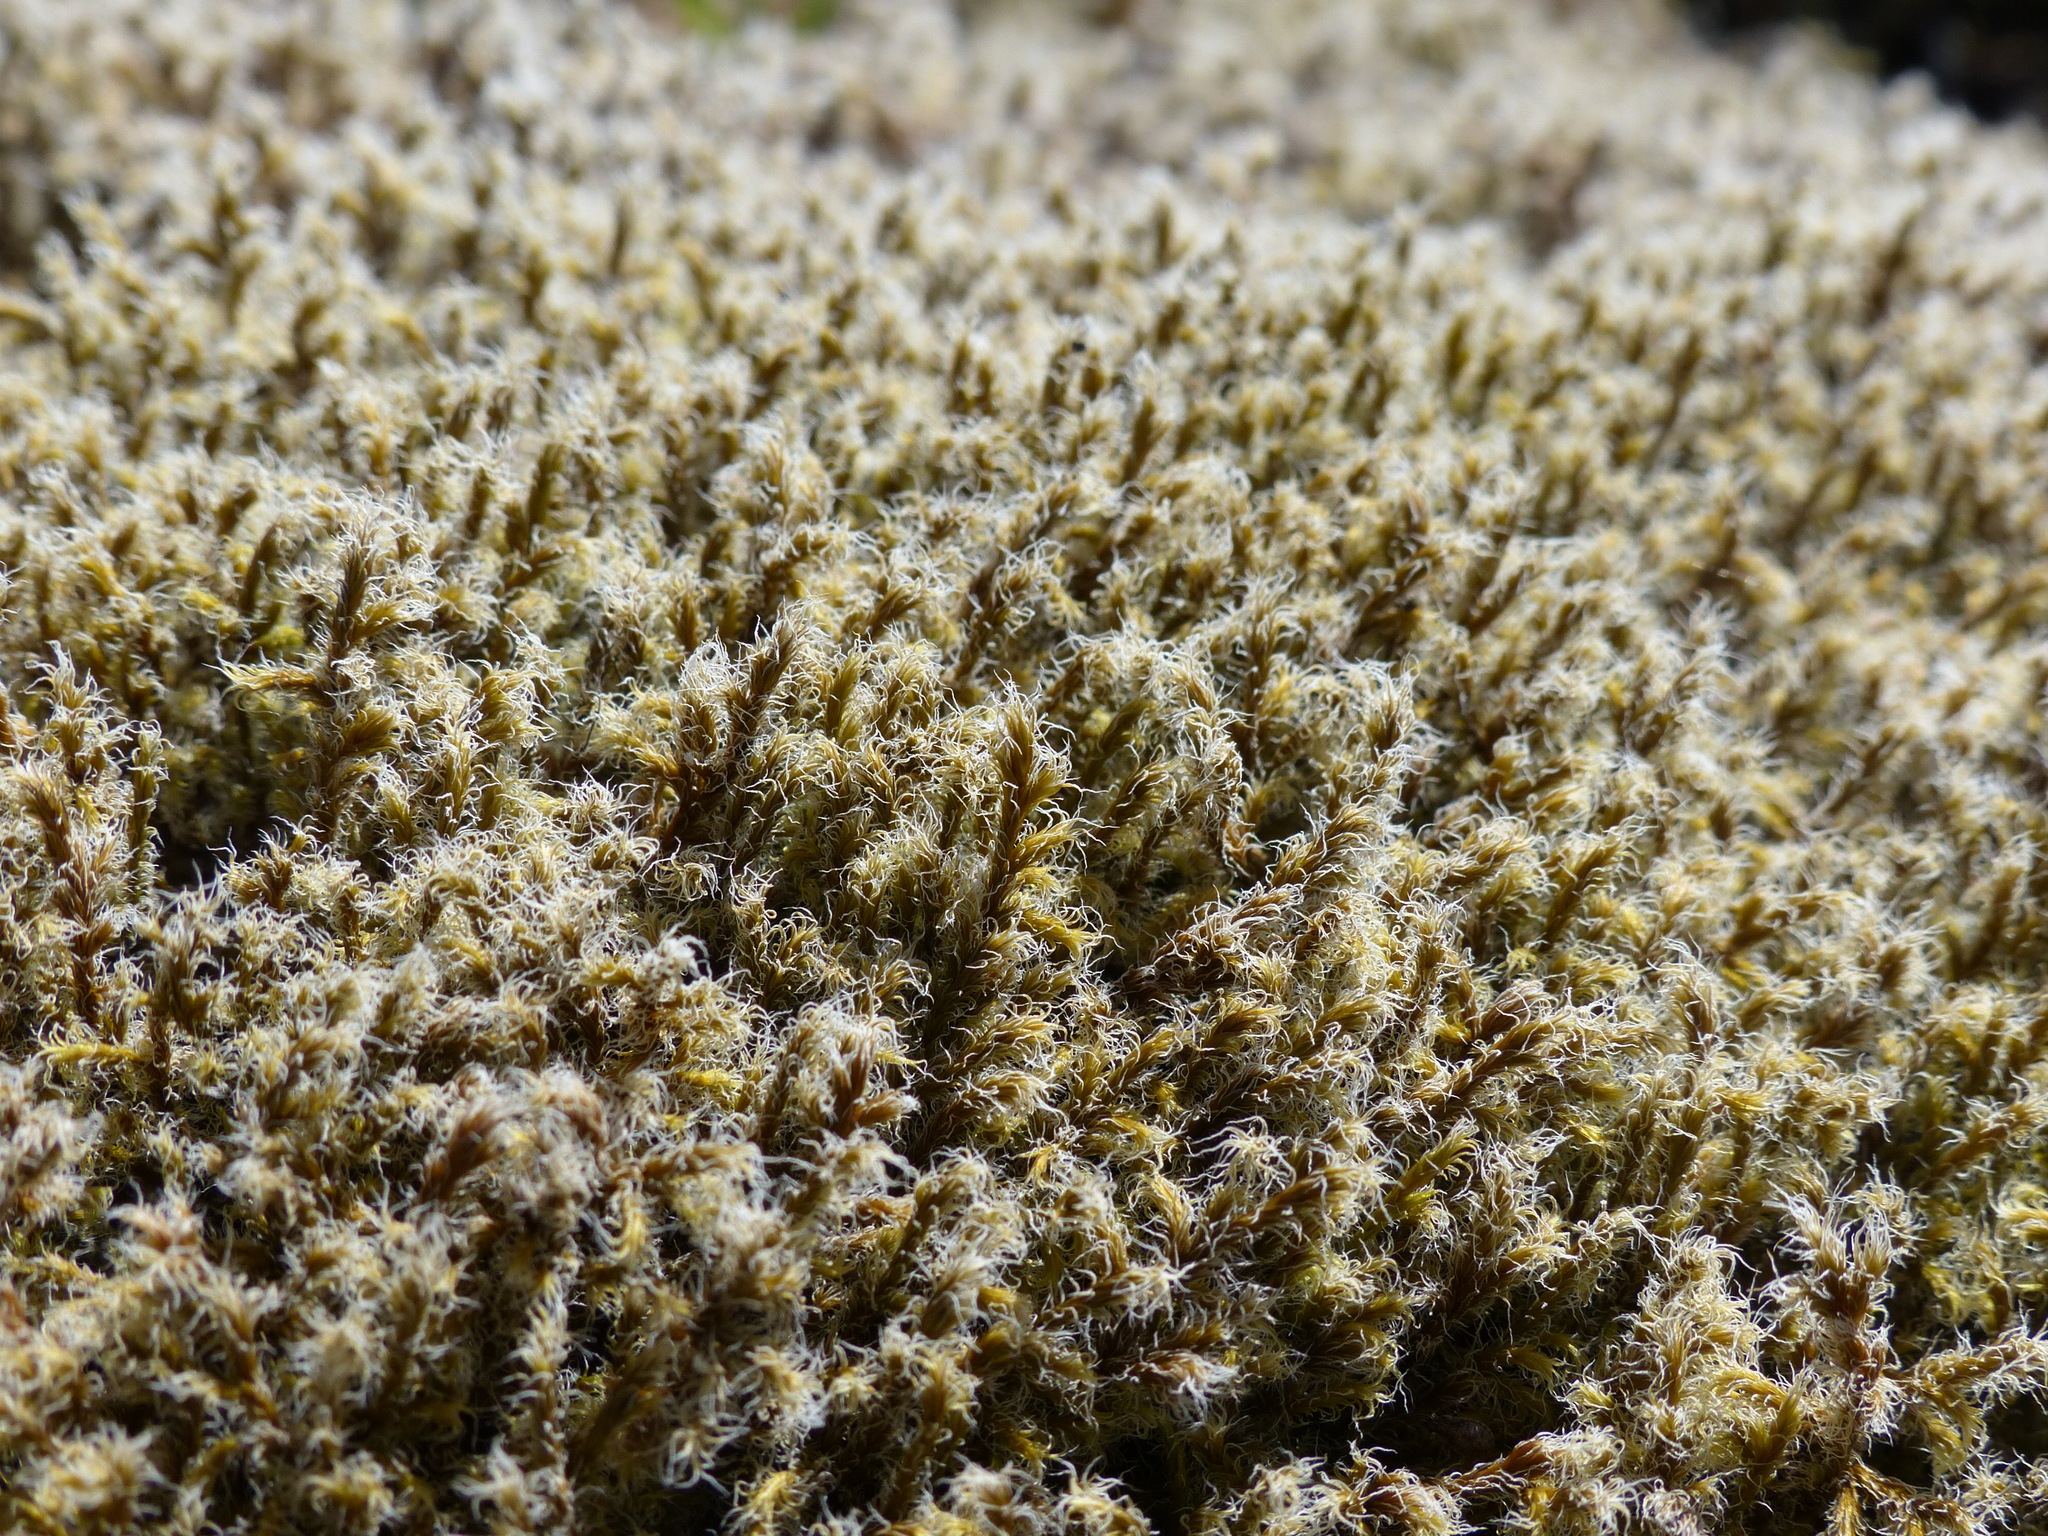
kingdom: Plantae
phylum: Bryophyta
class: Bryopsida
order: Grimmiales
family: Grimmiaceae
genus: Racomitrium
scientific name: Racomitrium lanuginosum
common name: Hoary rock moss
